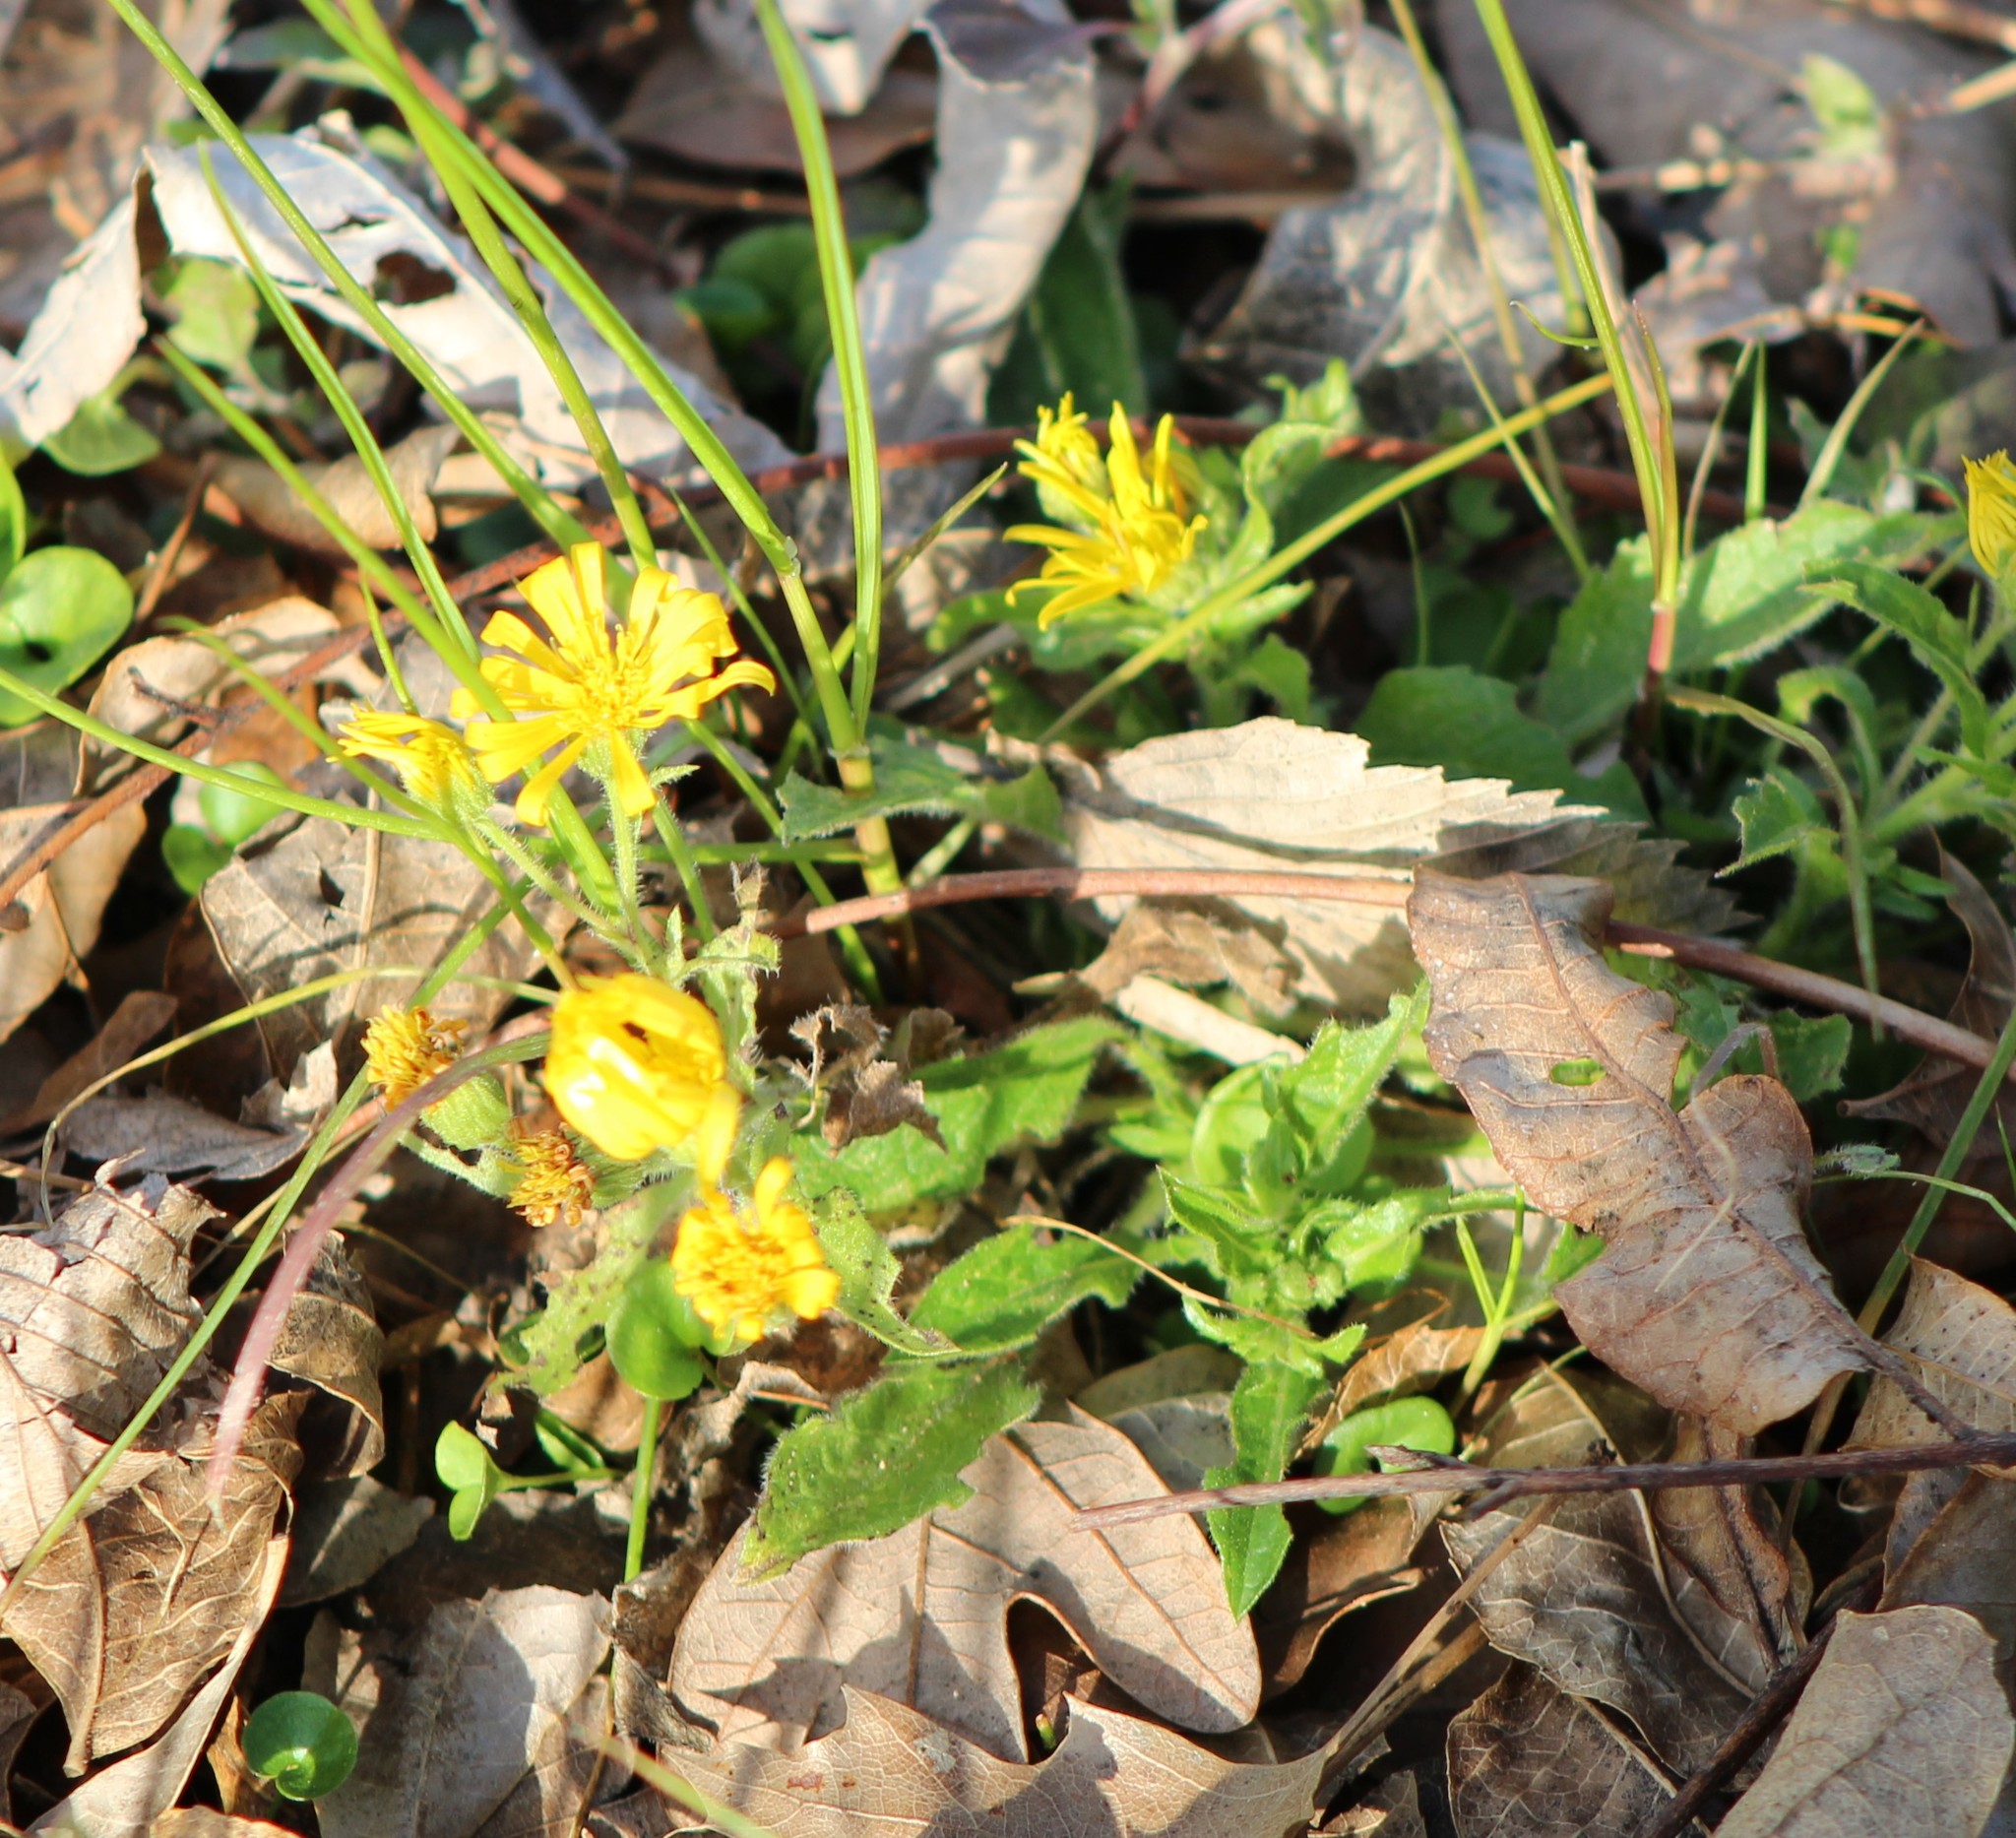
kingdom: Plantae
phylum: Tracheophyta
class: Magnoliopsida
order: Asterales
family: Asteraceae
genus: Heterotheca
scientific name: Heterotheca subaxillaris
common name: Camphorweed
